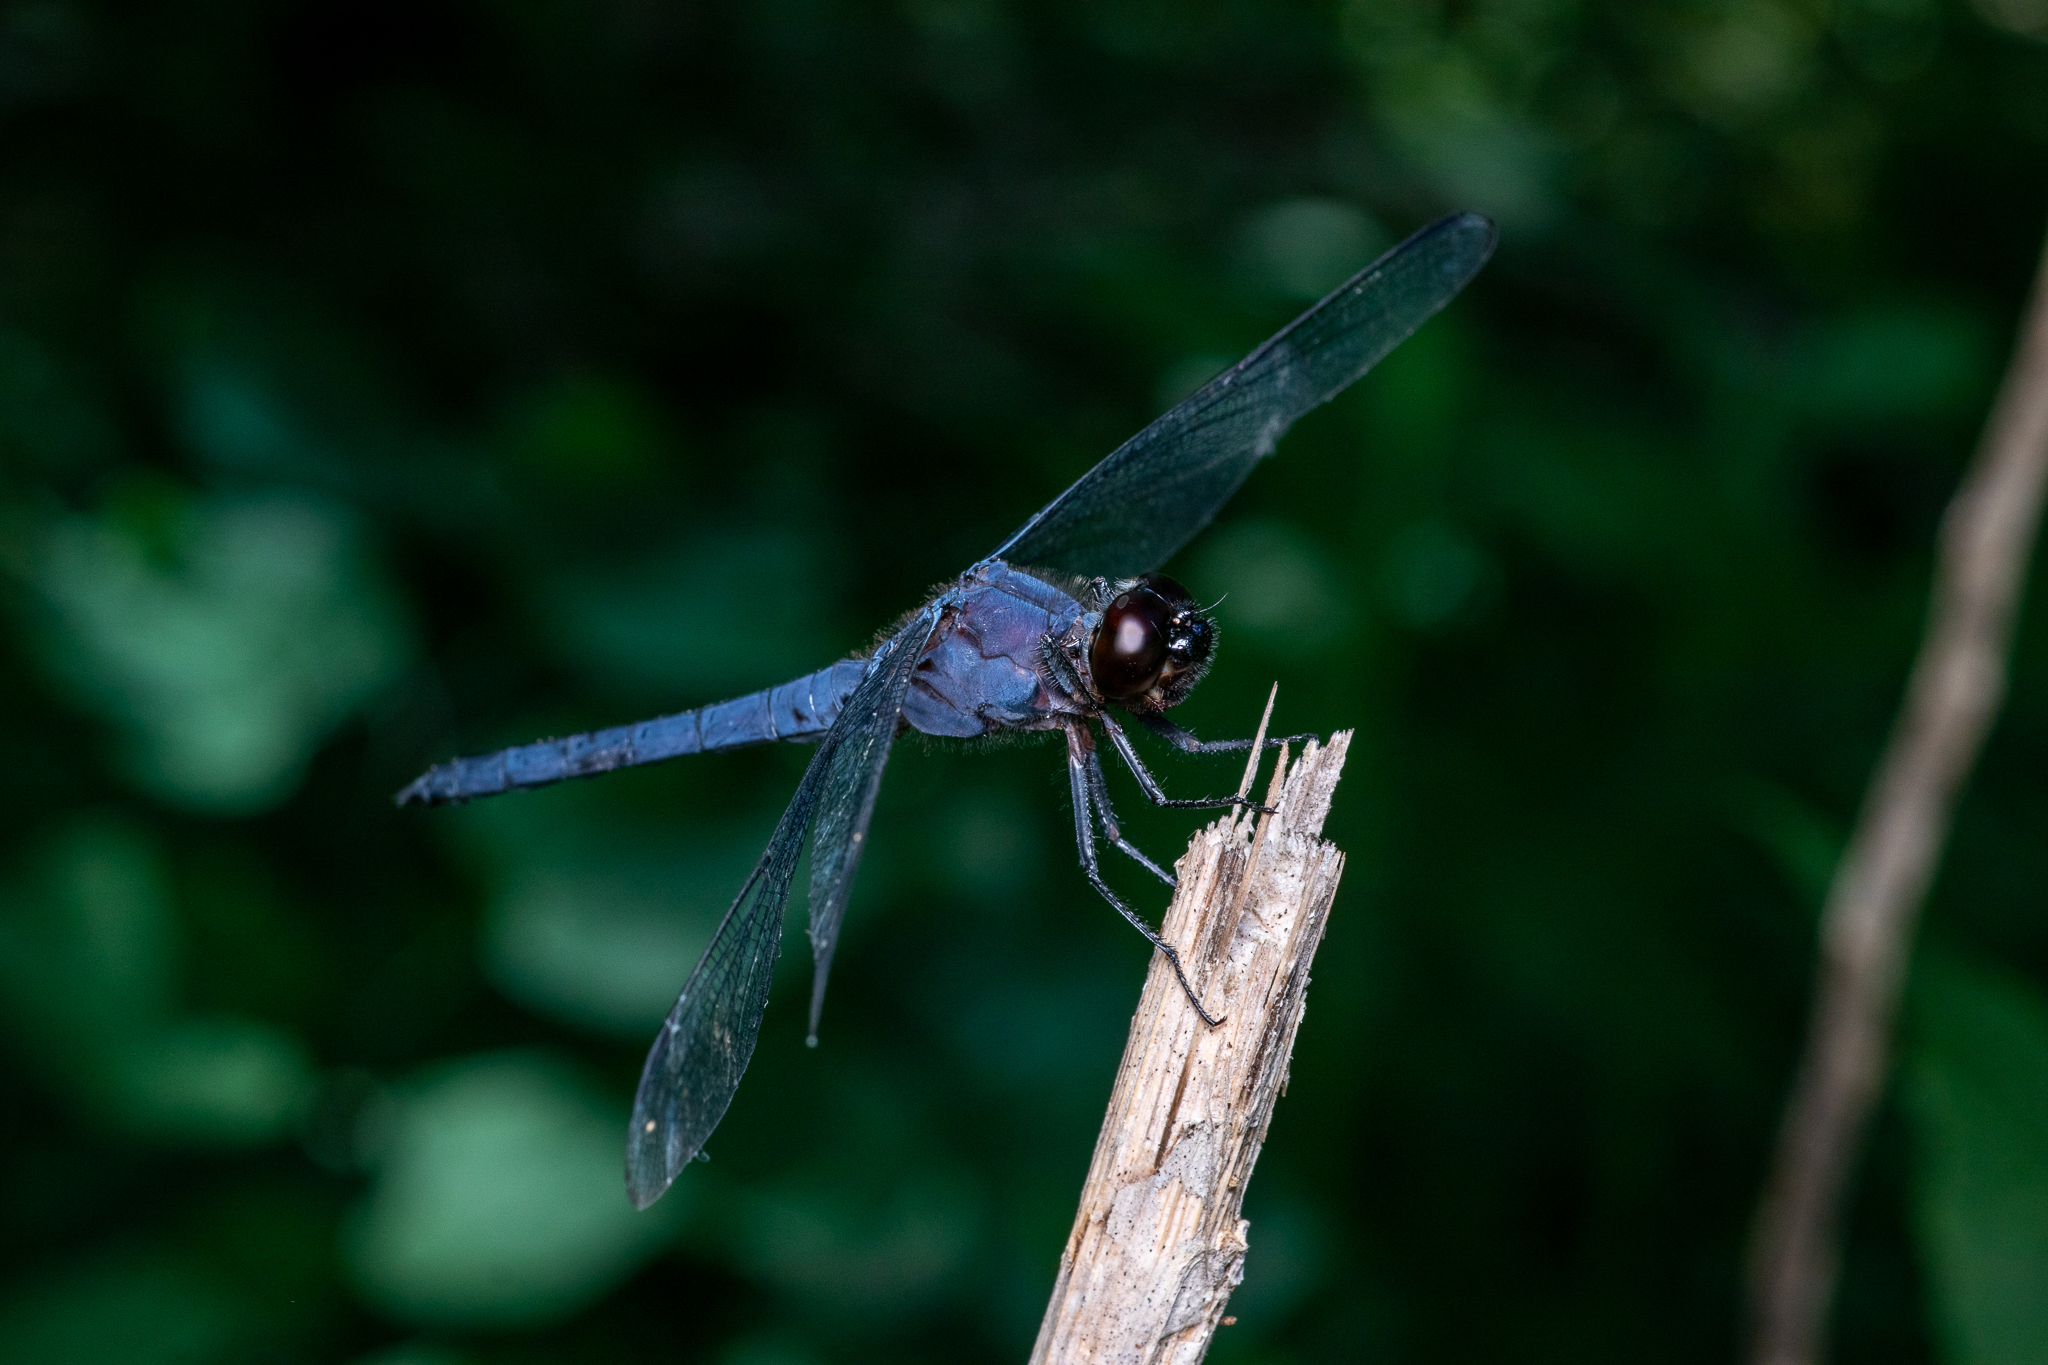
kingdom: Animalia
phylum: Arthropoda
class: Insecta
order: Odonata
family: Libellulidae
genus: Libellula
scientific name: Libellula incesta
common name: Slaty skimmer
